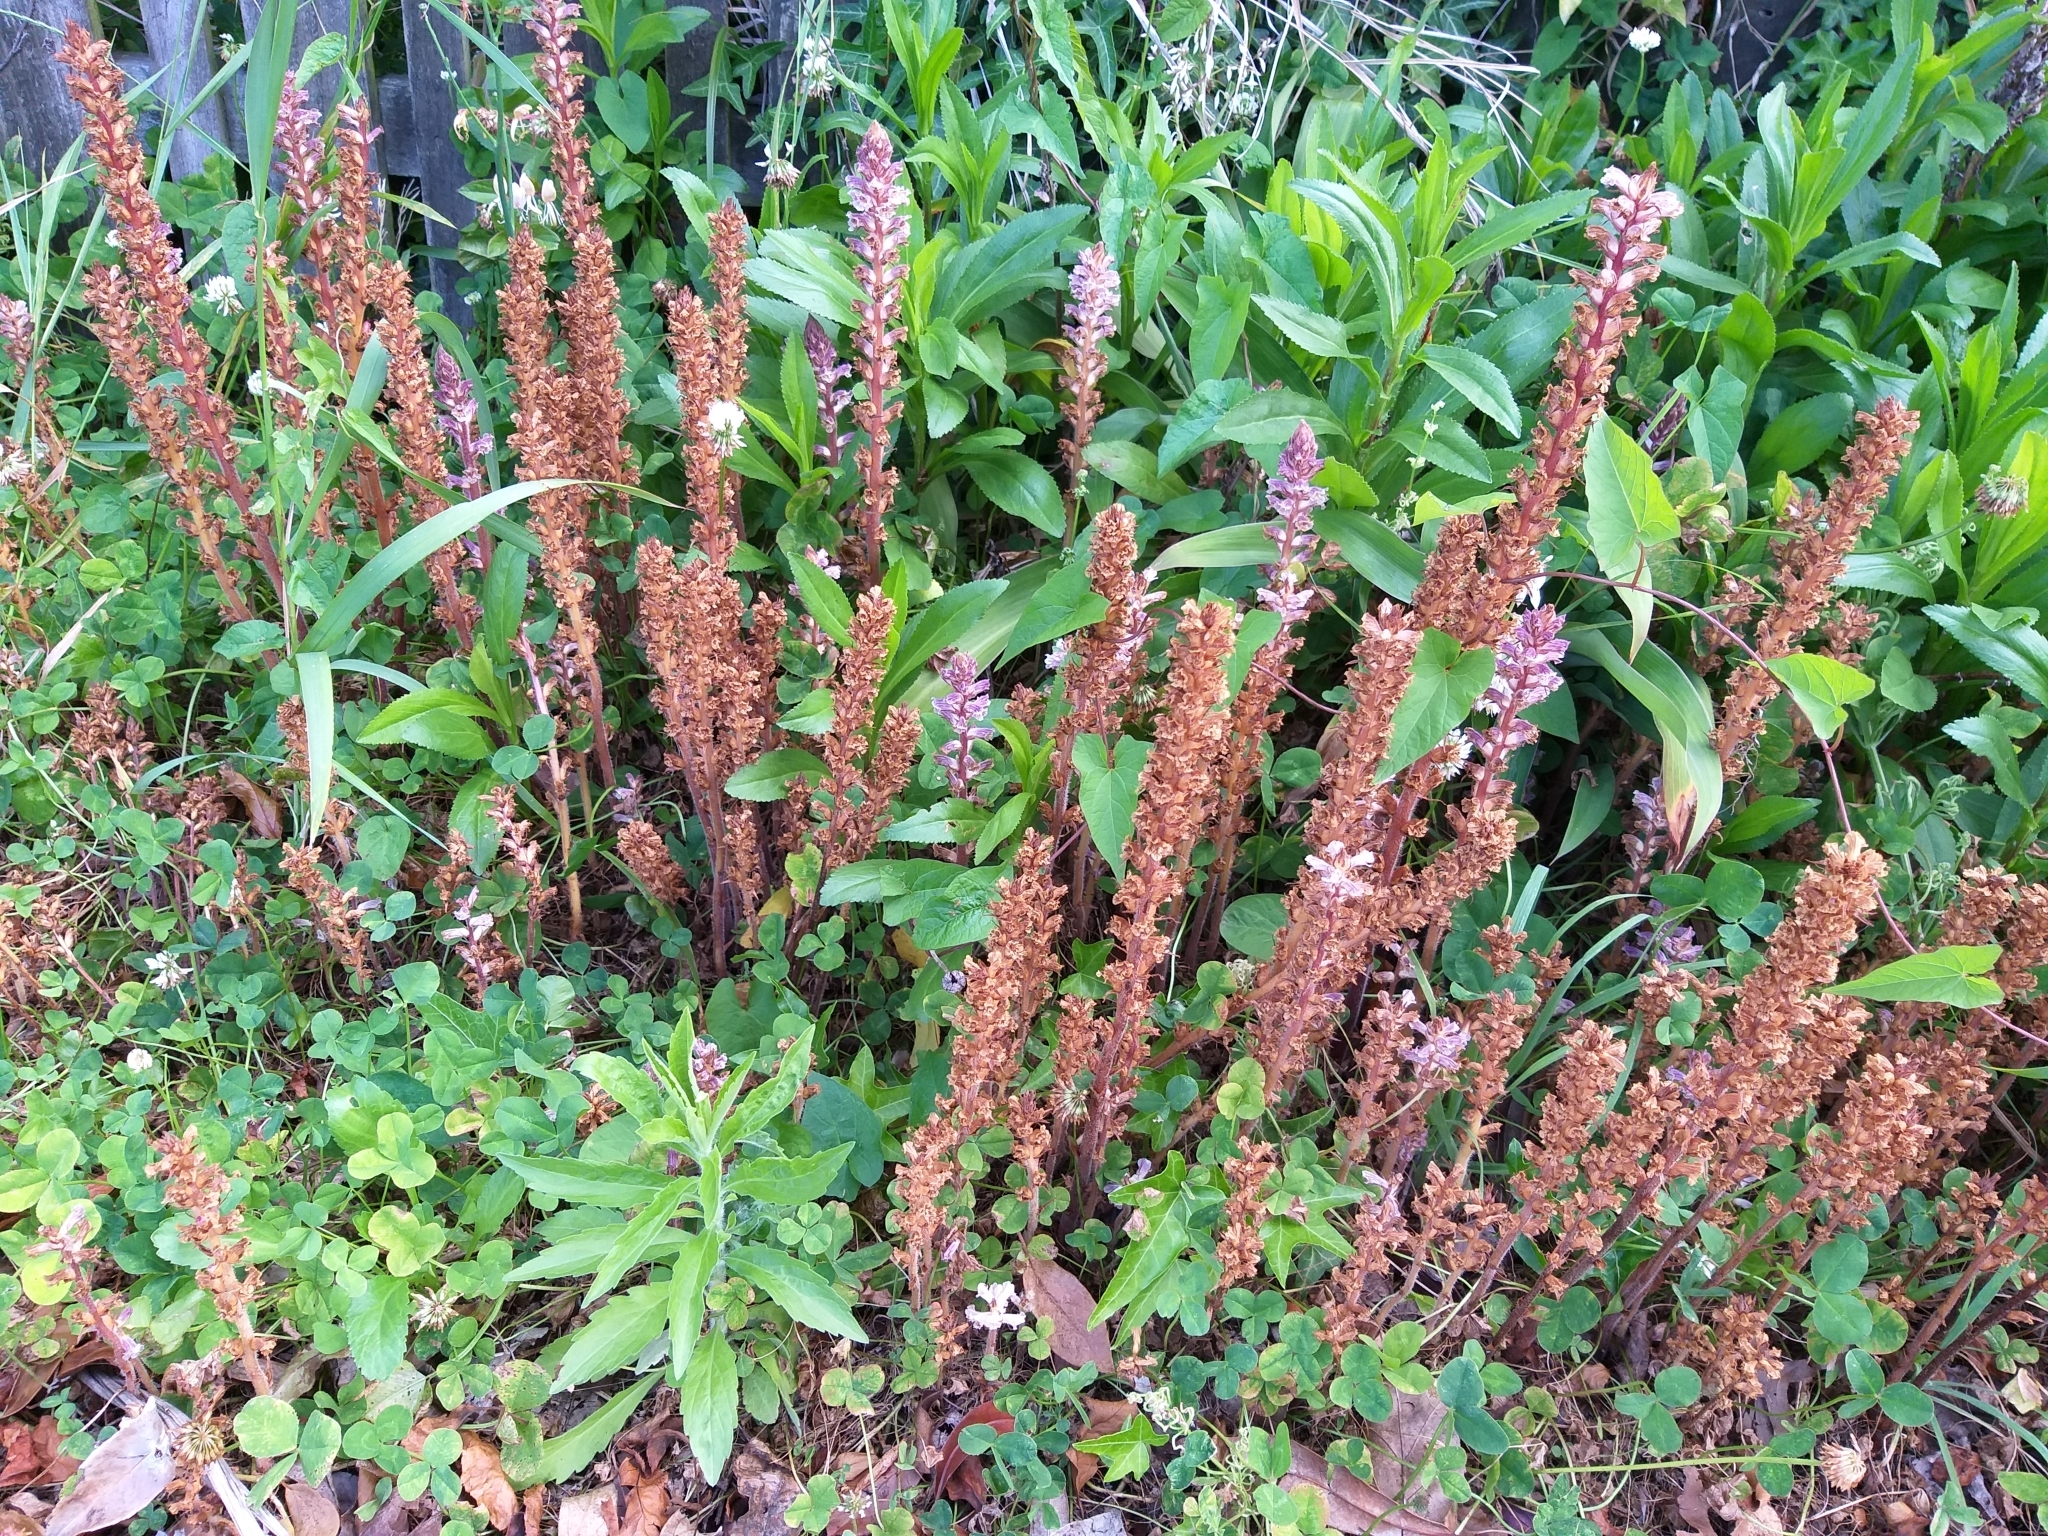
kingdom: Plantae
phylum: Tracheophyta
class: Magnoliopsida
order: Lamiales
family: Orobanchaceae
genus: Orobanche
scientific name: Orobanche minor
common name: Common broomrape
